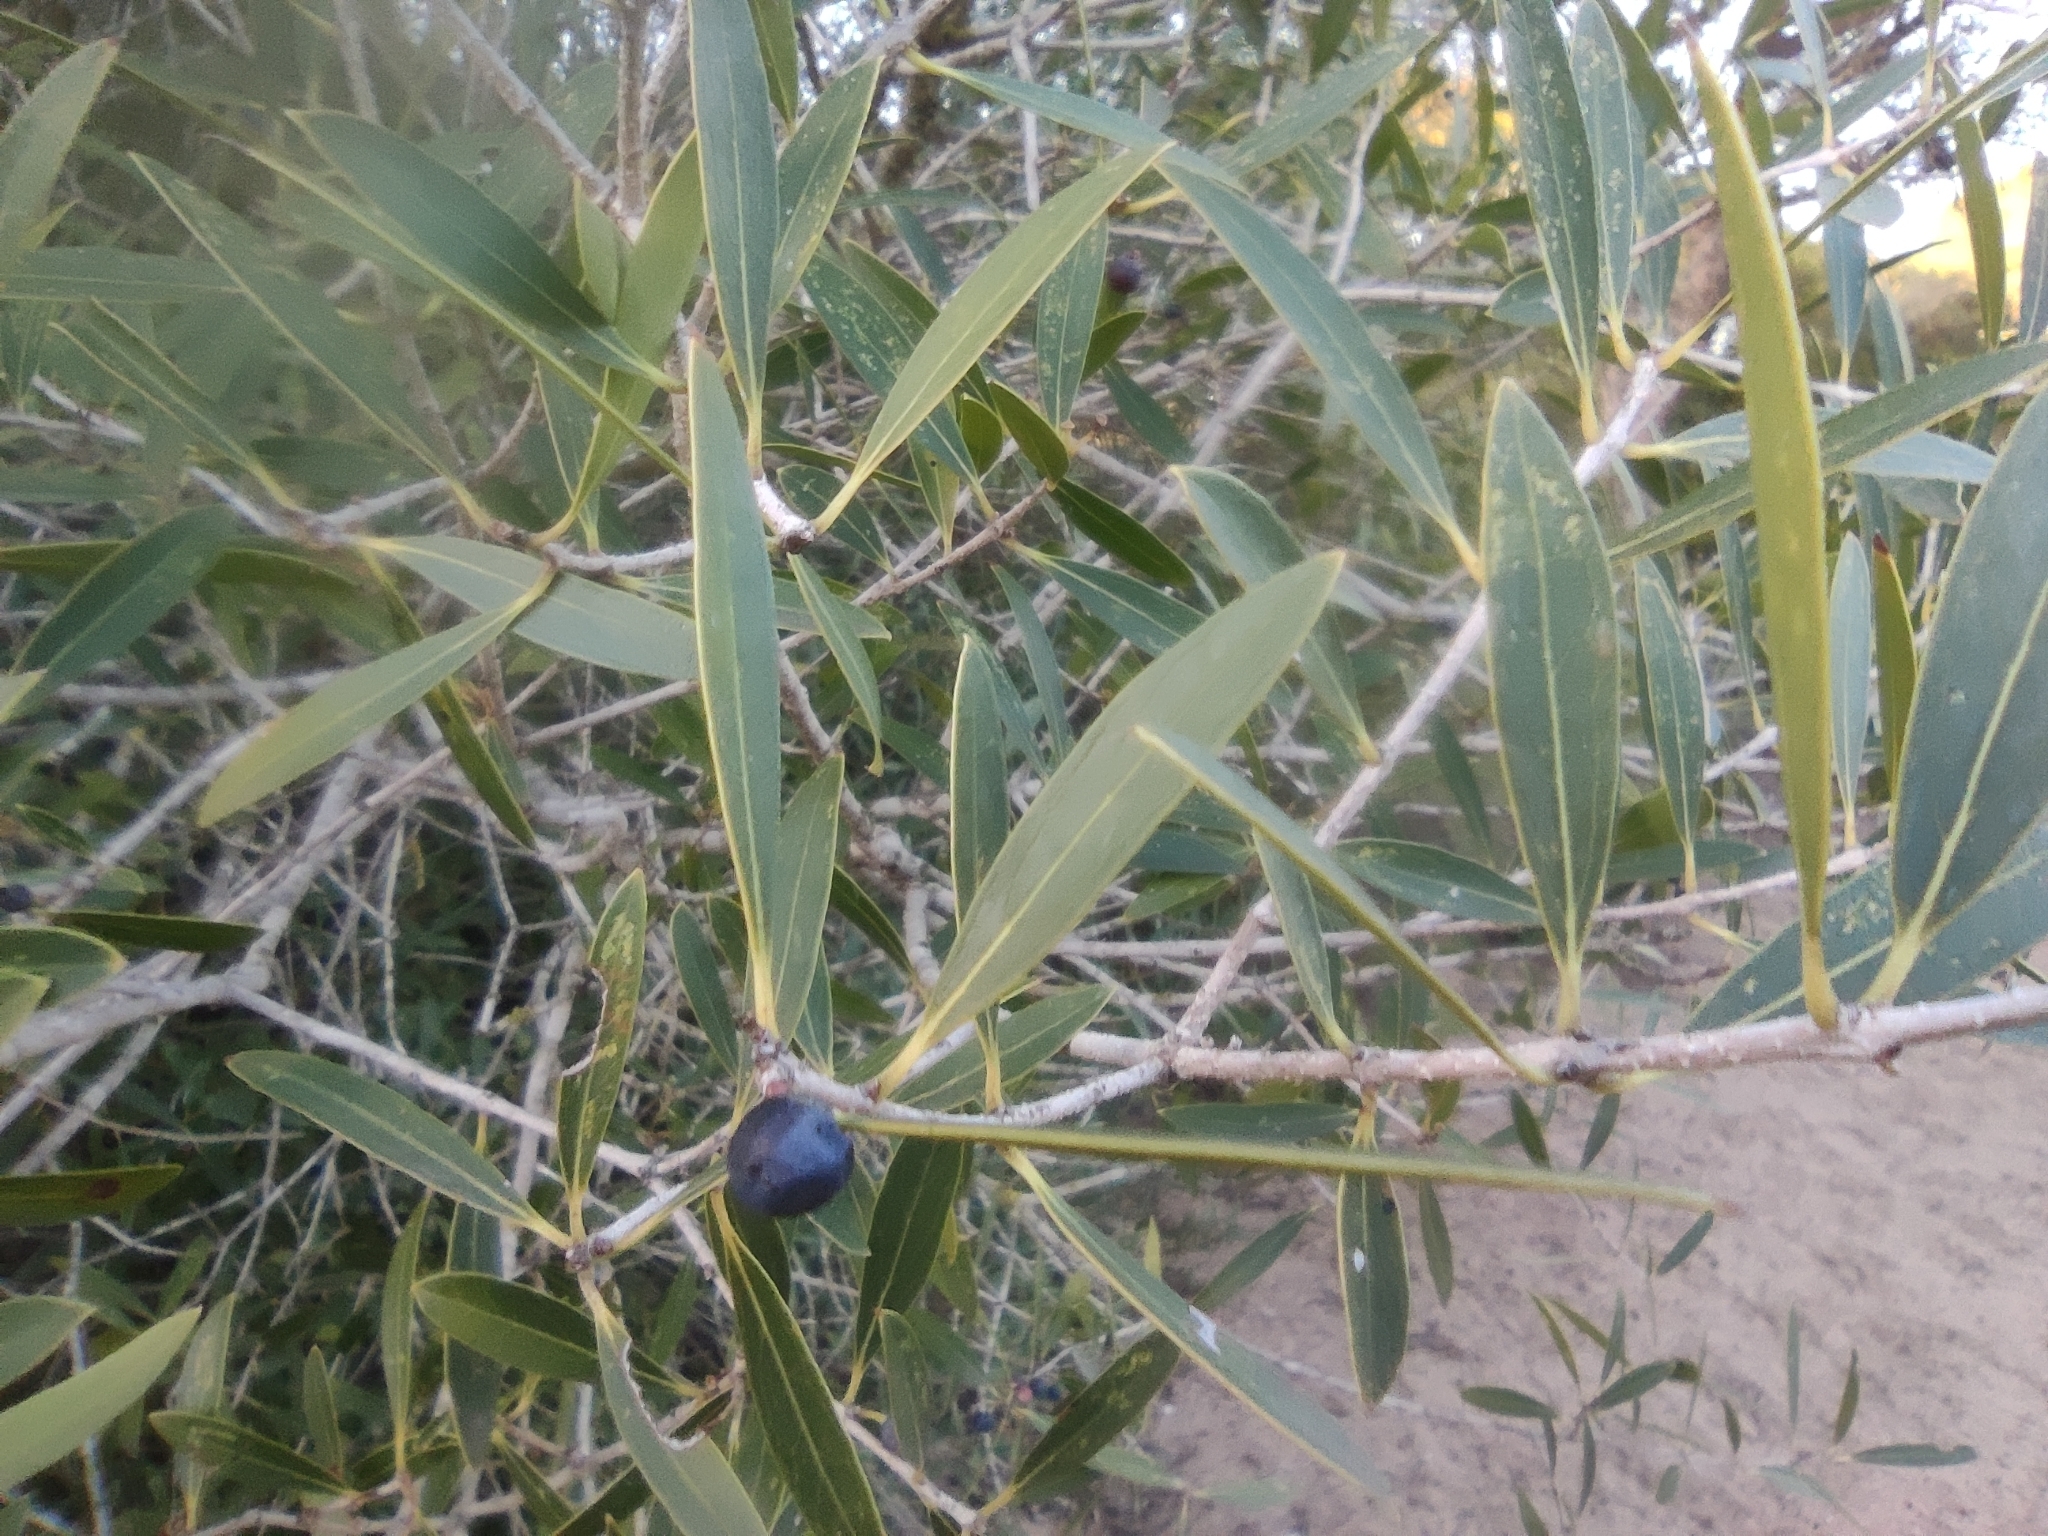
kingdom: Plantae
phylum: Tracheophyta
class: Magnoliopsida
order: Lamiales
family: Oleaceae
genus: Phillyrea
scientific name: Phillyrea angustifolia
